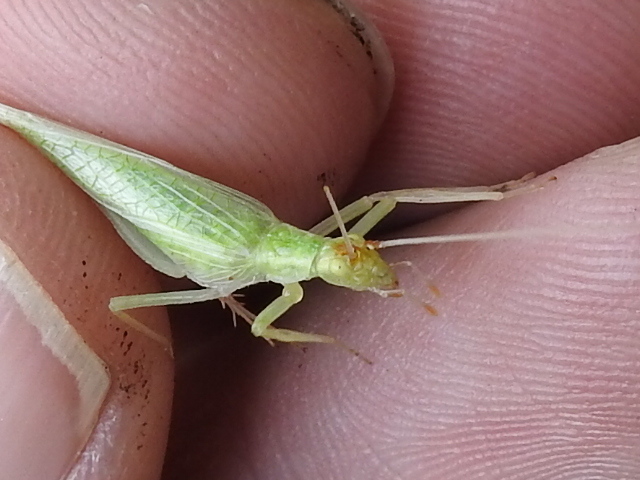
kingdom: Animalia
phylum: Arthropoda
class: Insecta
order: Orthoptera
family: Gryllidae
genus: Oecanthus
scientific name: Oecanthus fultoni
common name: Snowy tree cricket
